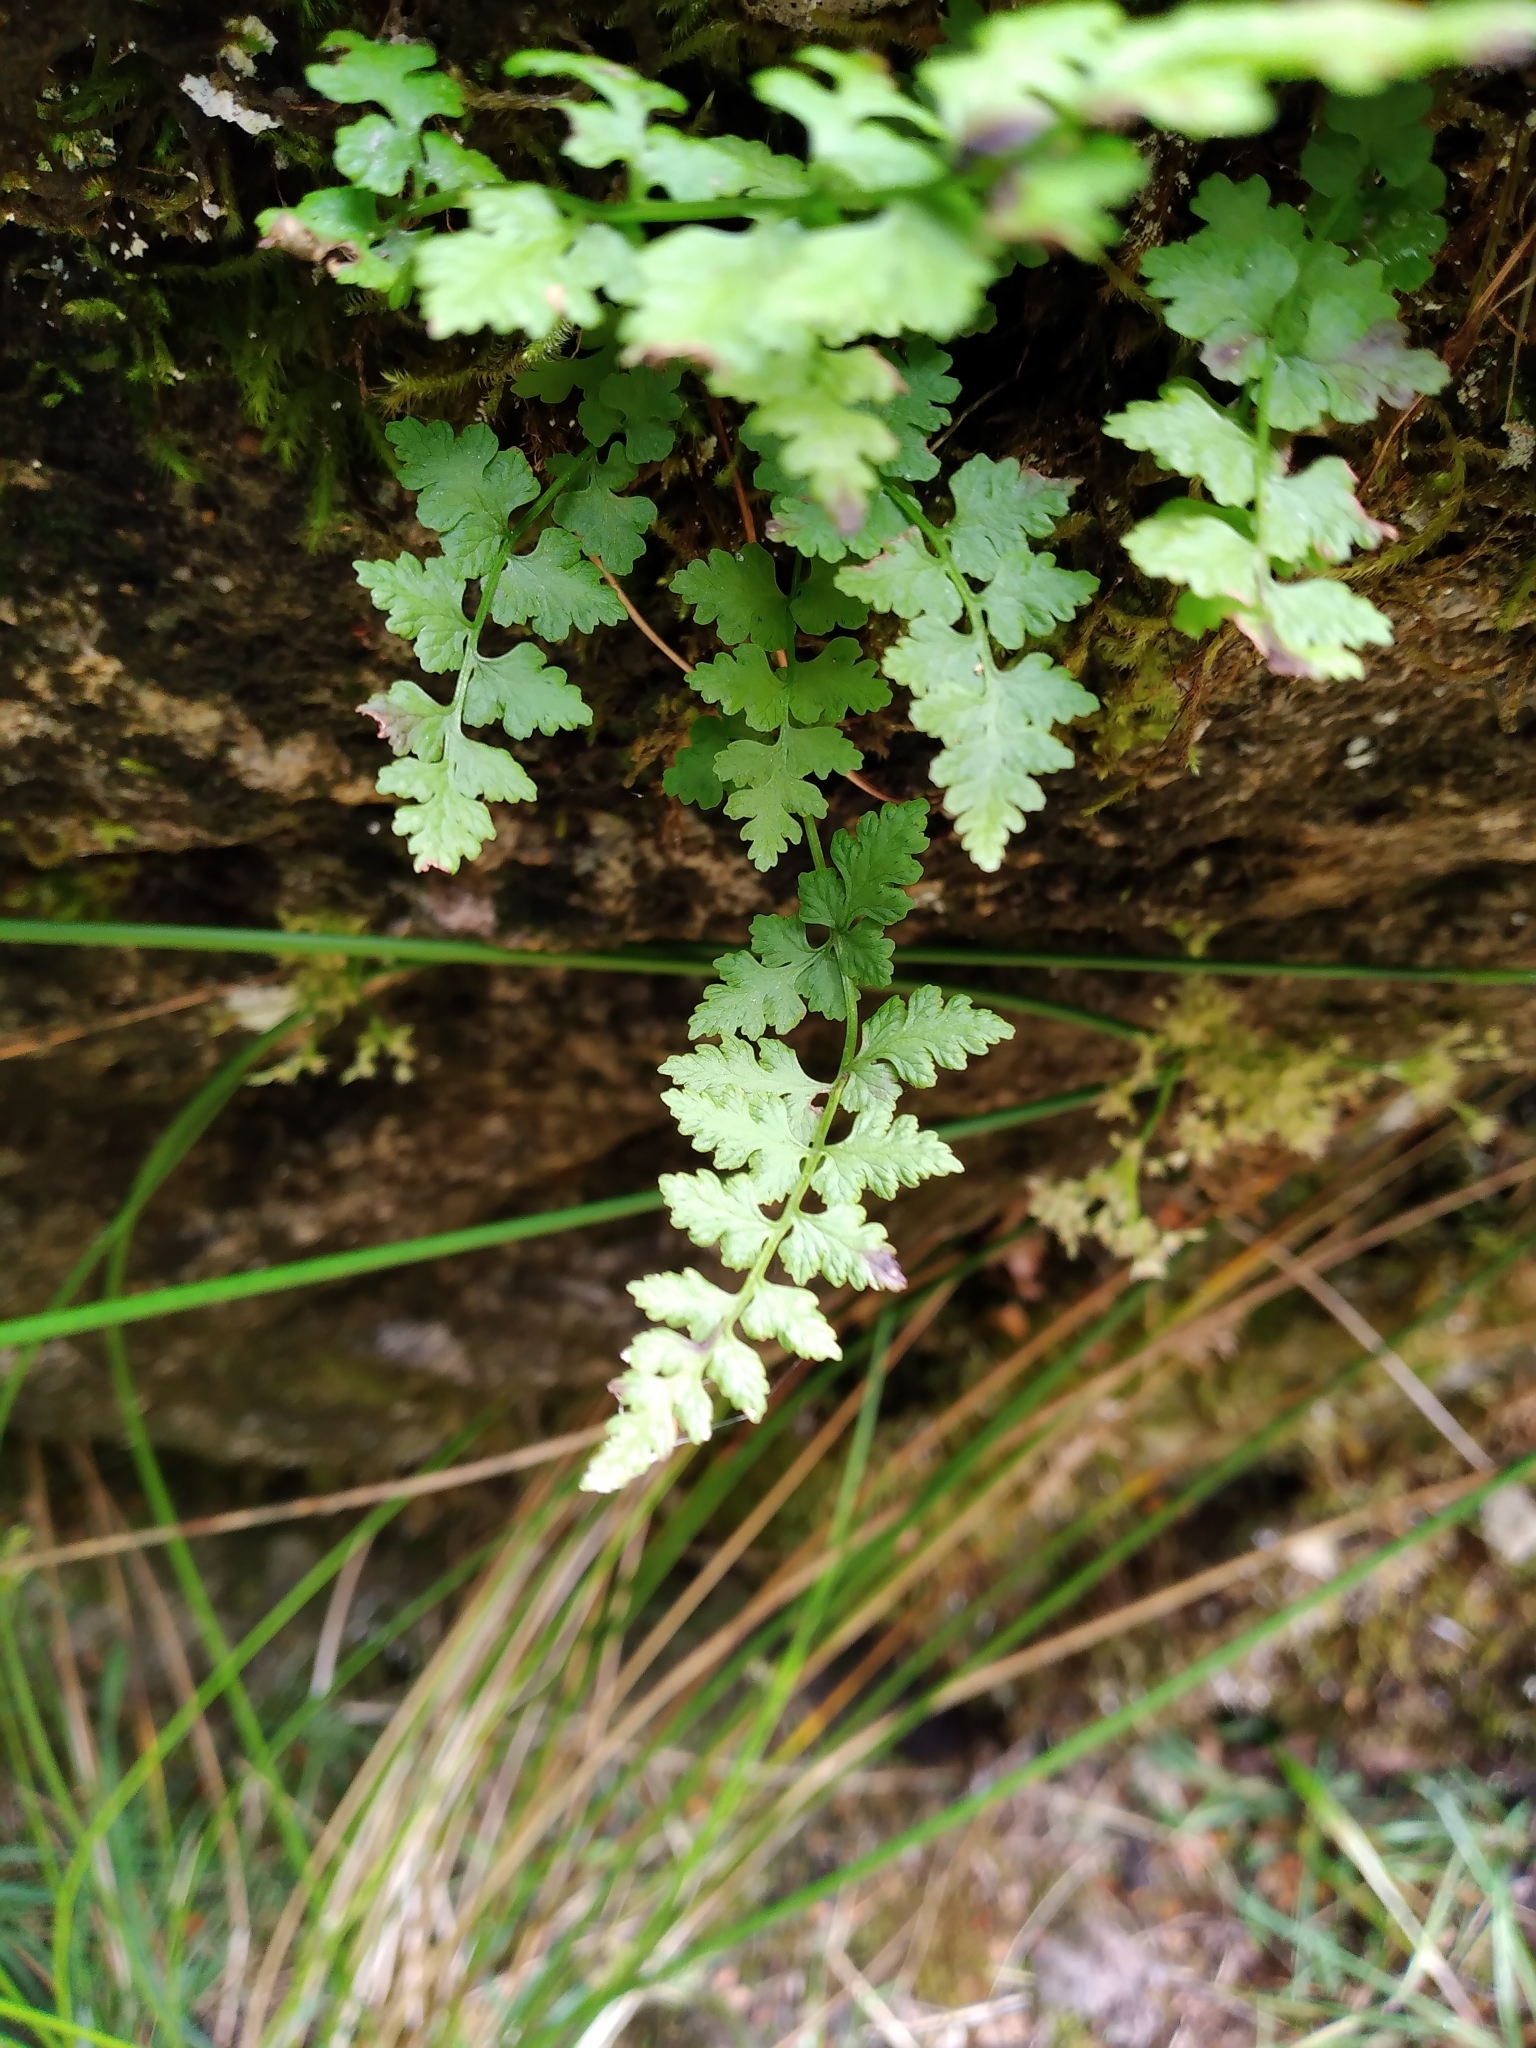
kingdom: Plantae
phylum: Tracheophyta
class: Polypodiopsida
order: Polypodiales
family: Cystopteridaceae
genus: Cystopteris
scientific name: Cystopteris tasmanica
